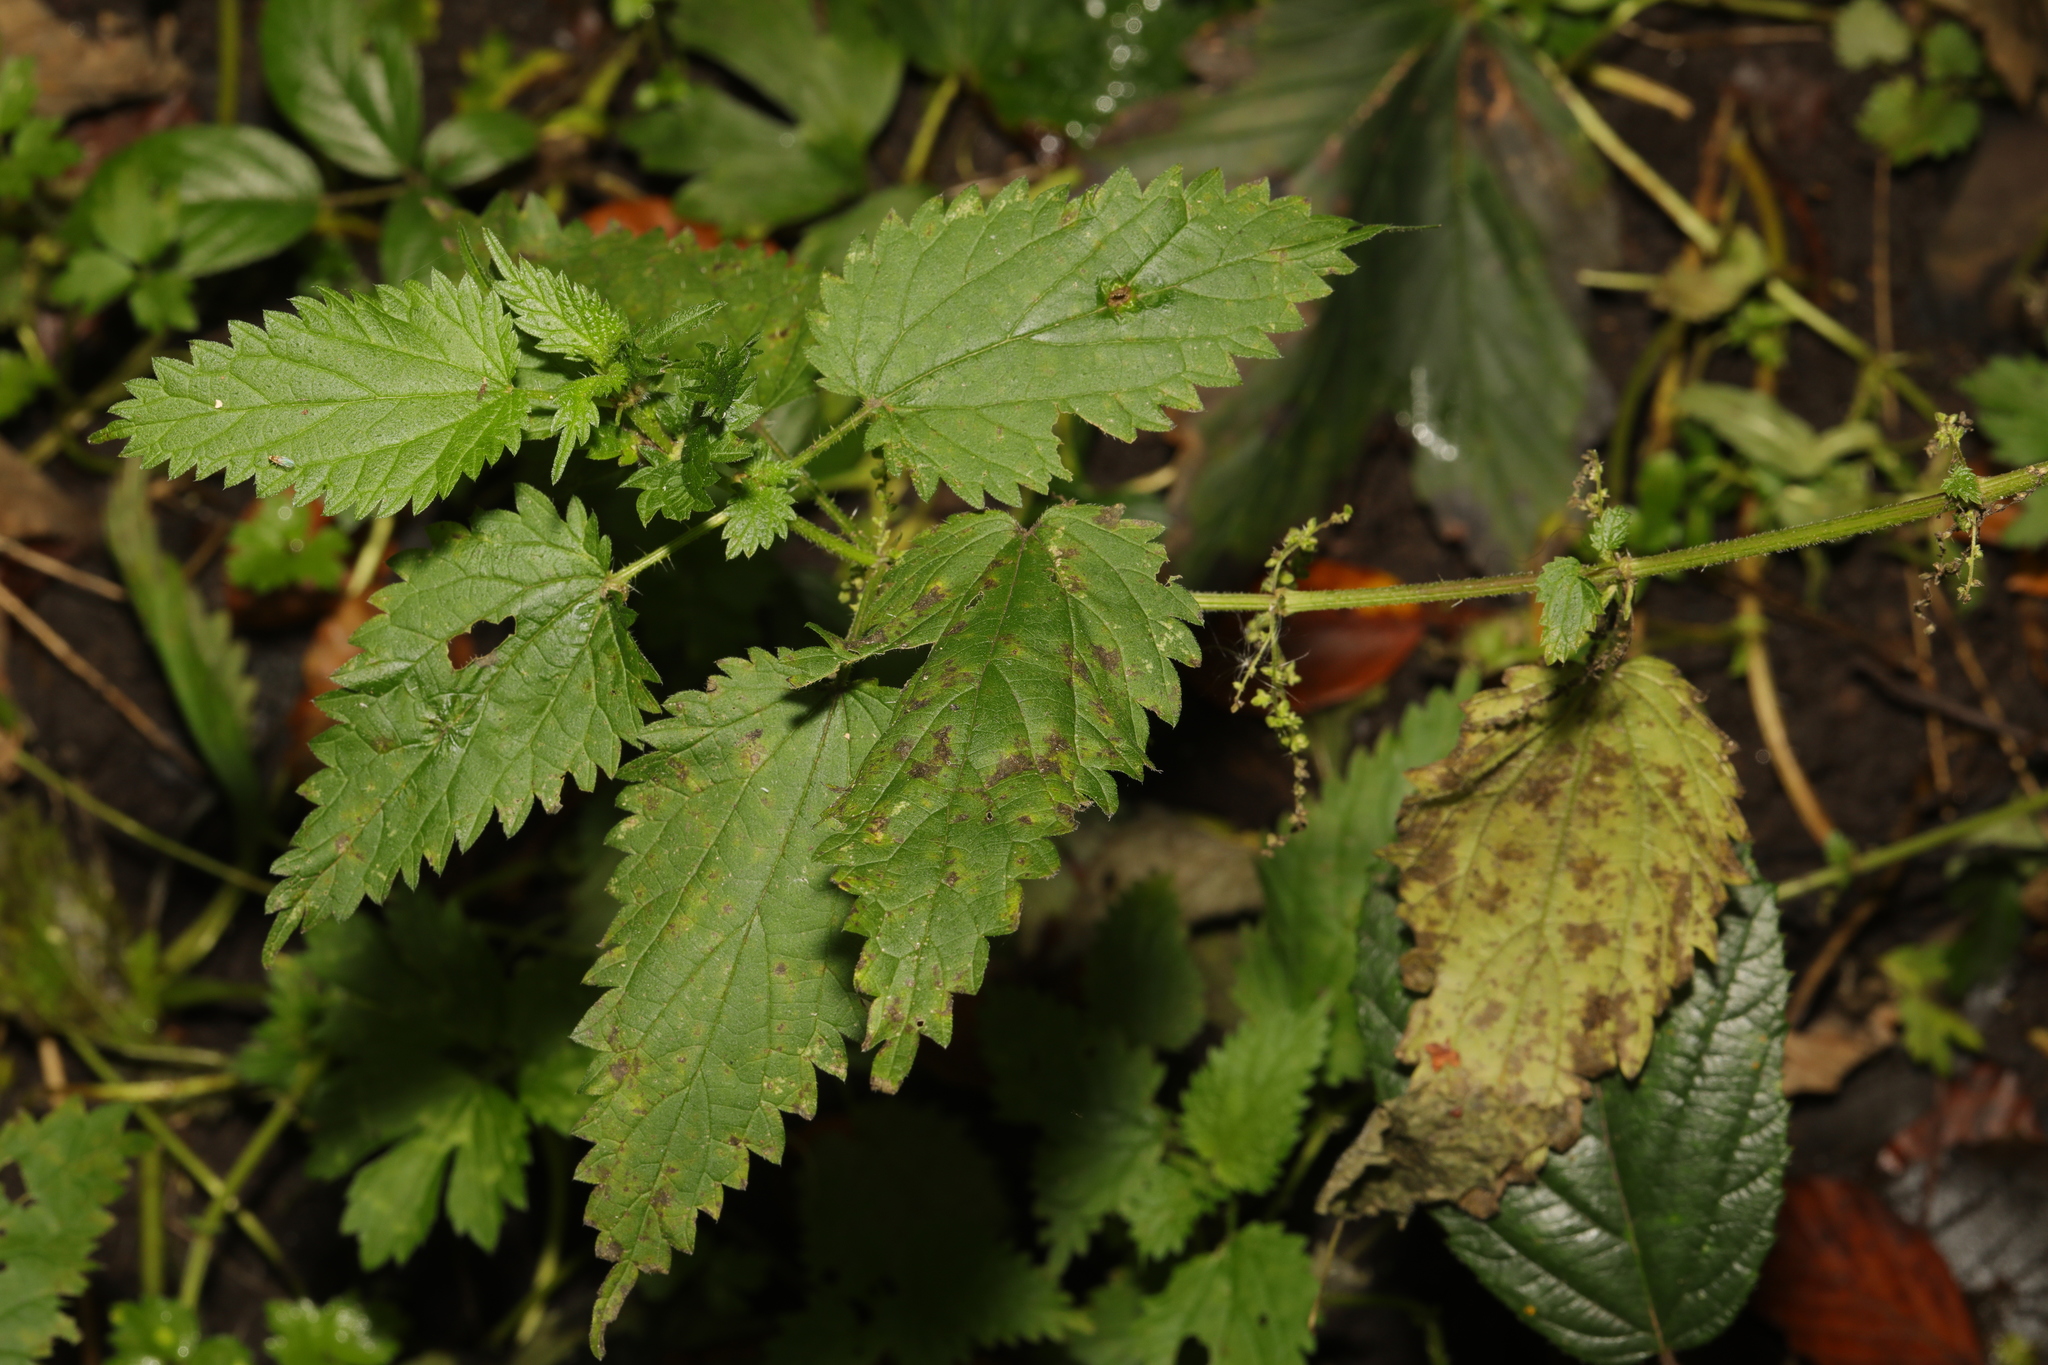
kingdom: Plantae
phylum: Tracheophyta
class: Magnoliopsida
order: Rosales
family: Urticaceae
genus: Urtica
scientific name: Urtica dioica
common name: Common nettle
